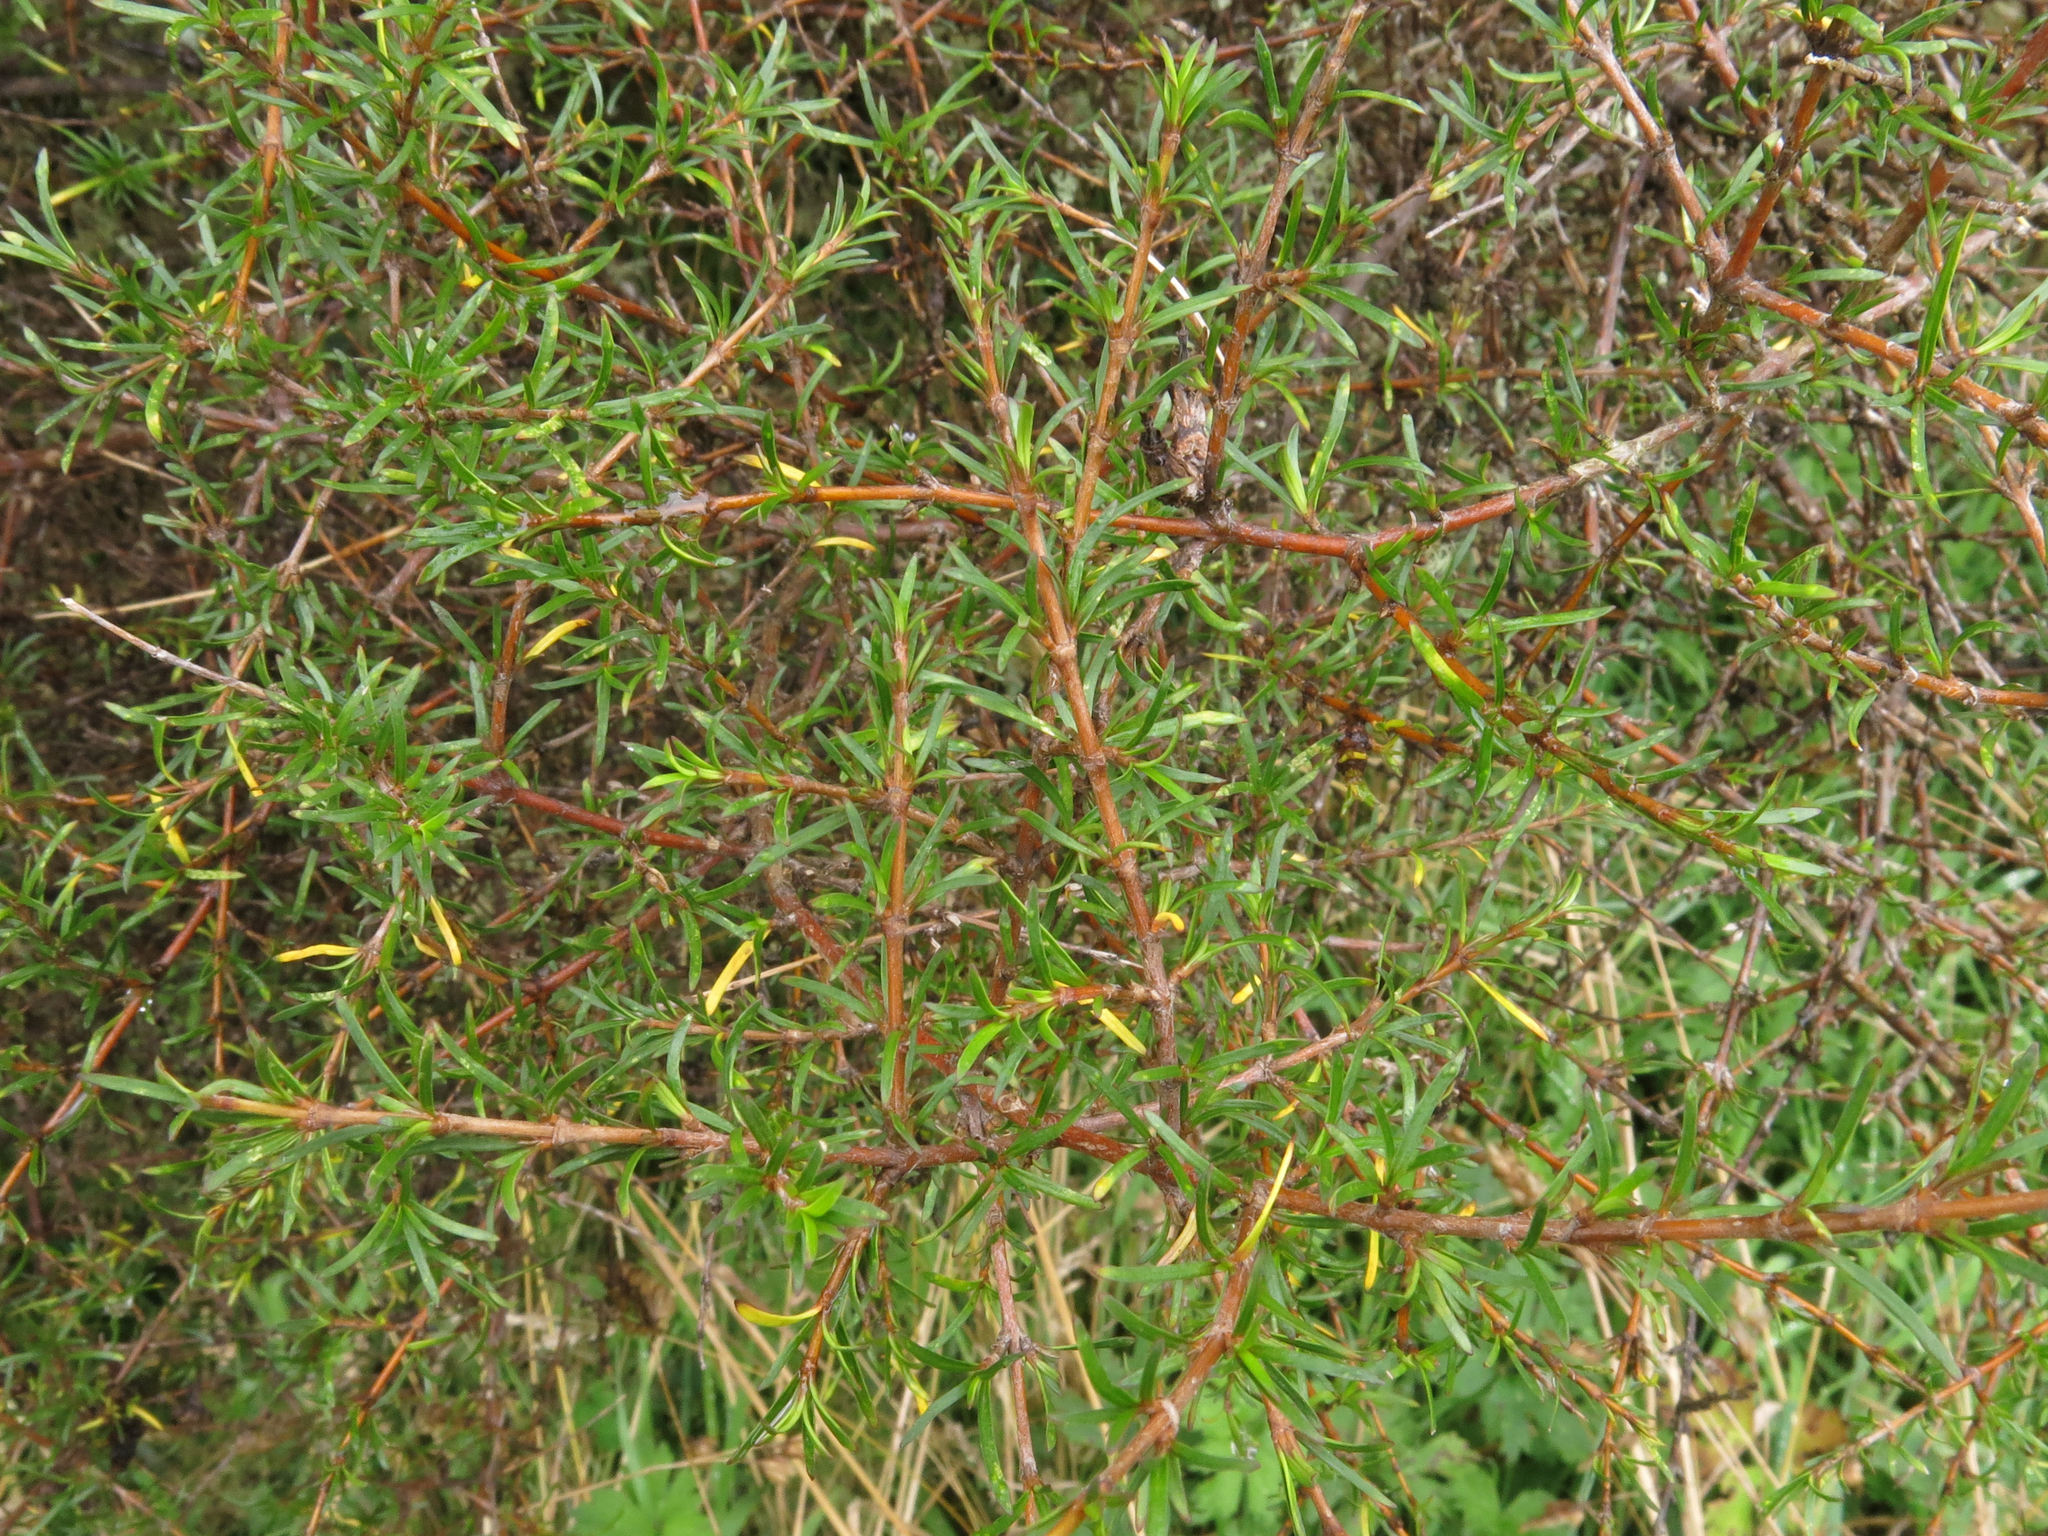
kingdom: Plantae
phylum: Tracheophyta
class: Magnoliopsida
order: Gentianales
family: Rubiaceae
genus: Coprosma
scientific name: Coprosma rugosa
